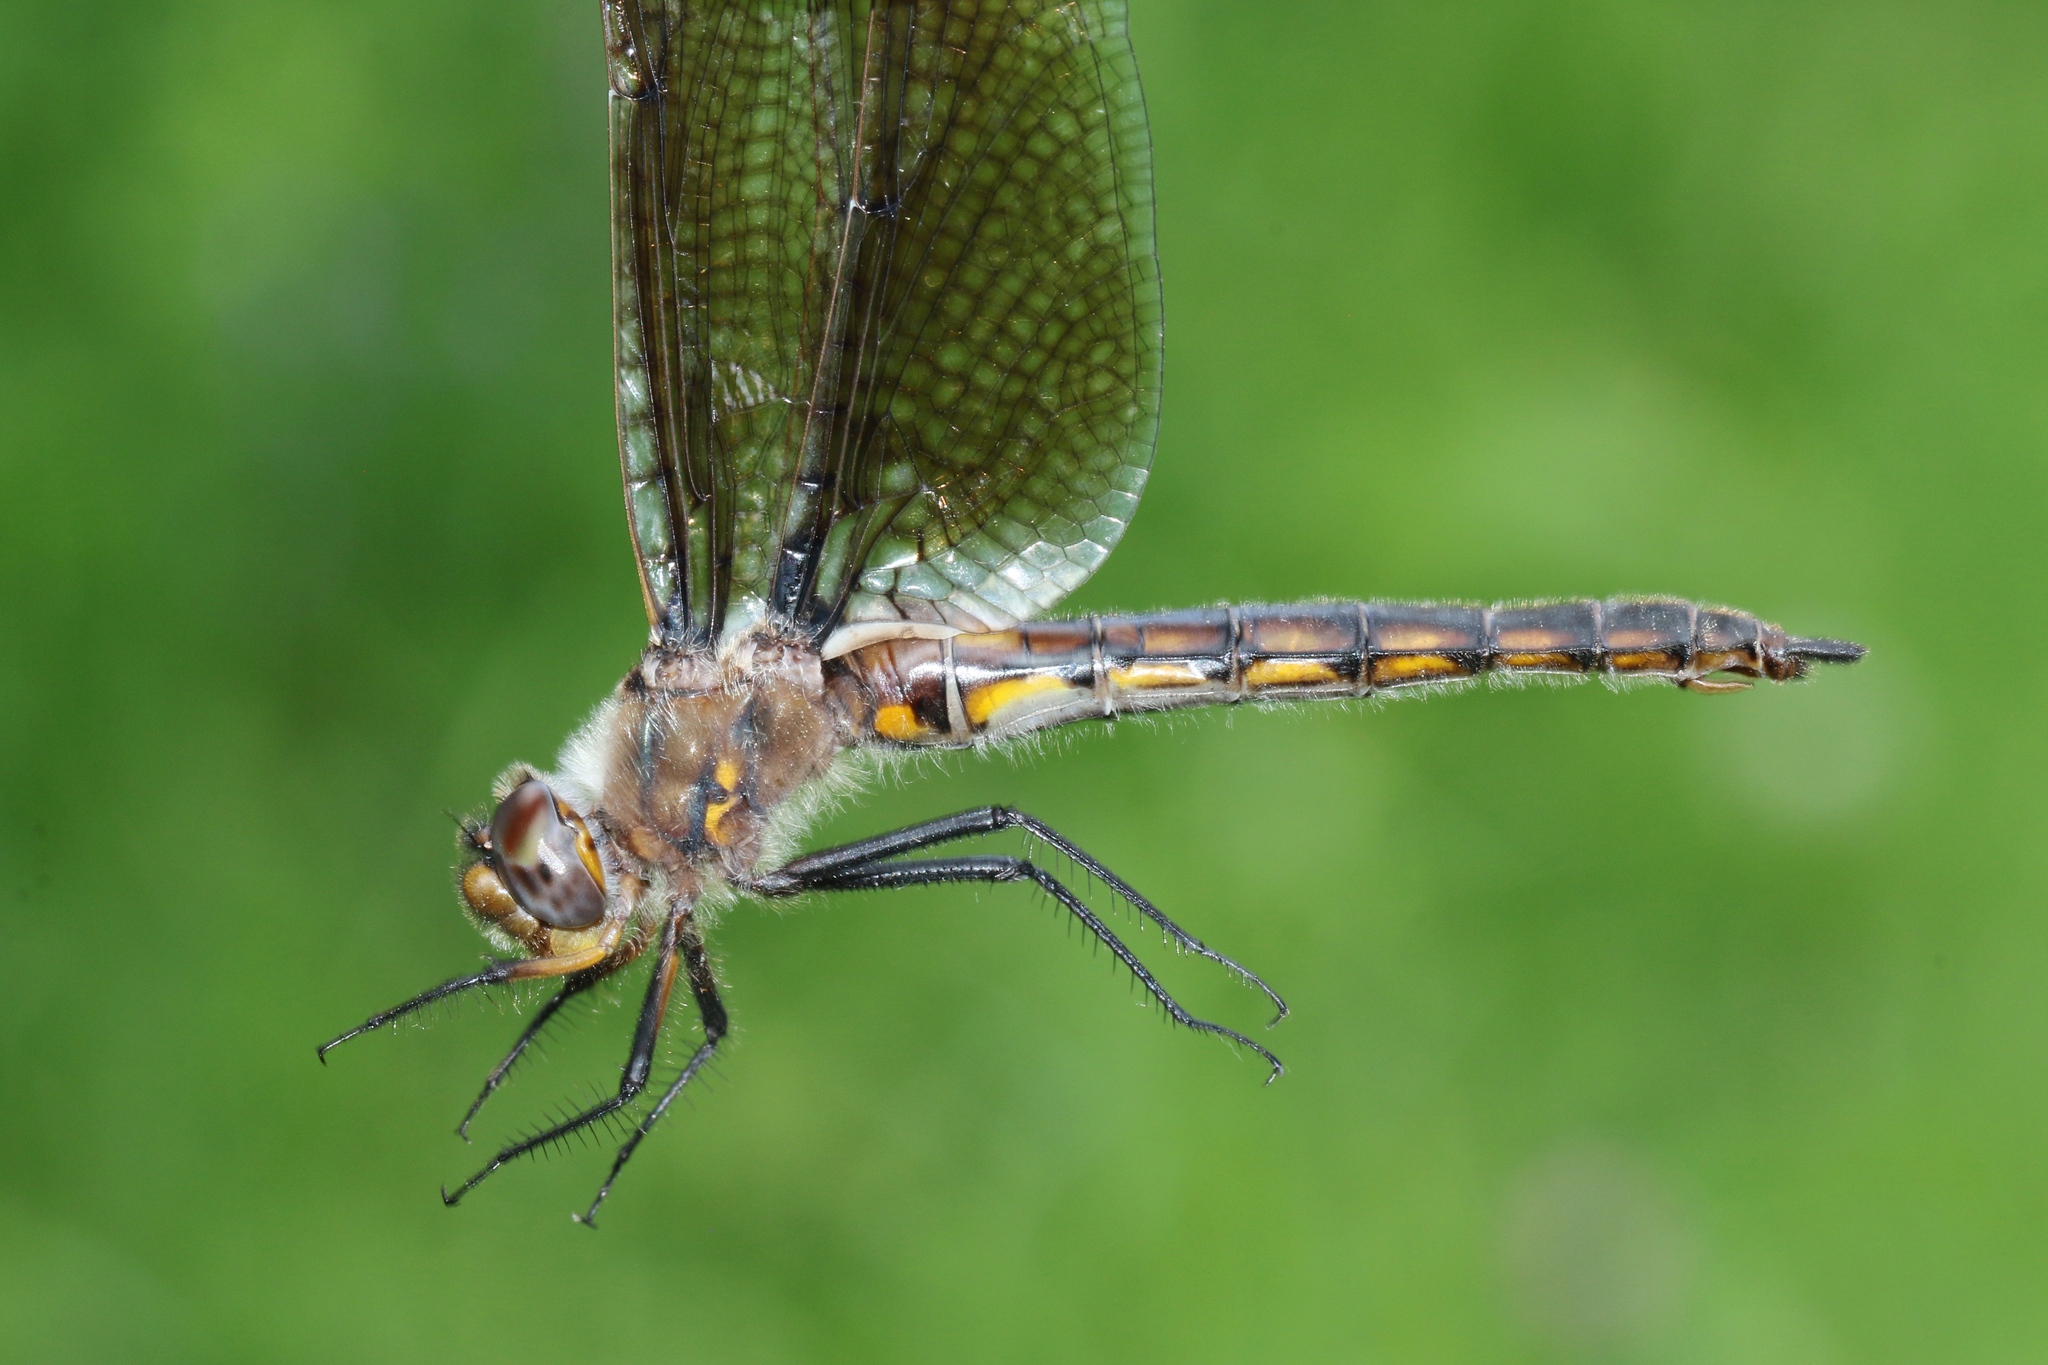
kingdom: Animalia
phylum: Arthropoda
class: Insecta
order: Odonata
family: Corduliidae
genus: Epitheca
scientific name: Epitheca canis
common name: Beaverpond baskettail
